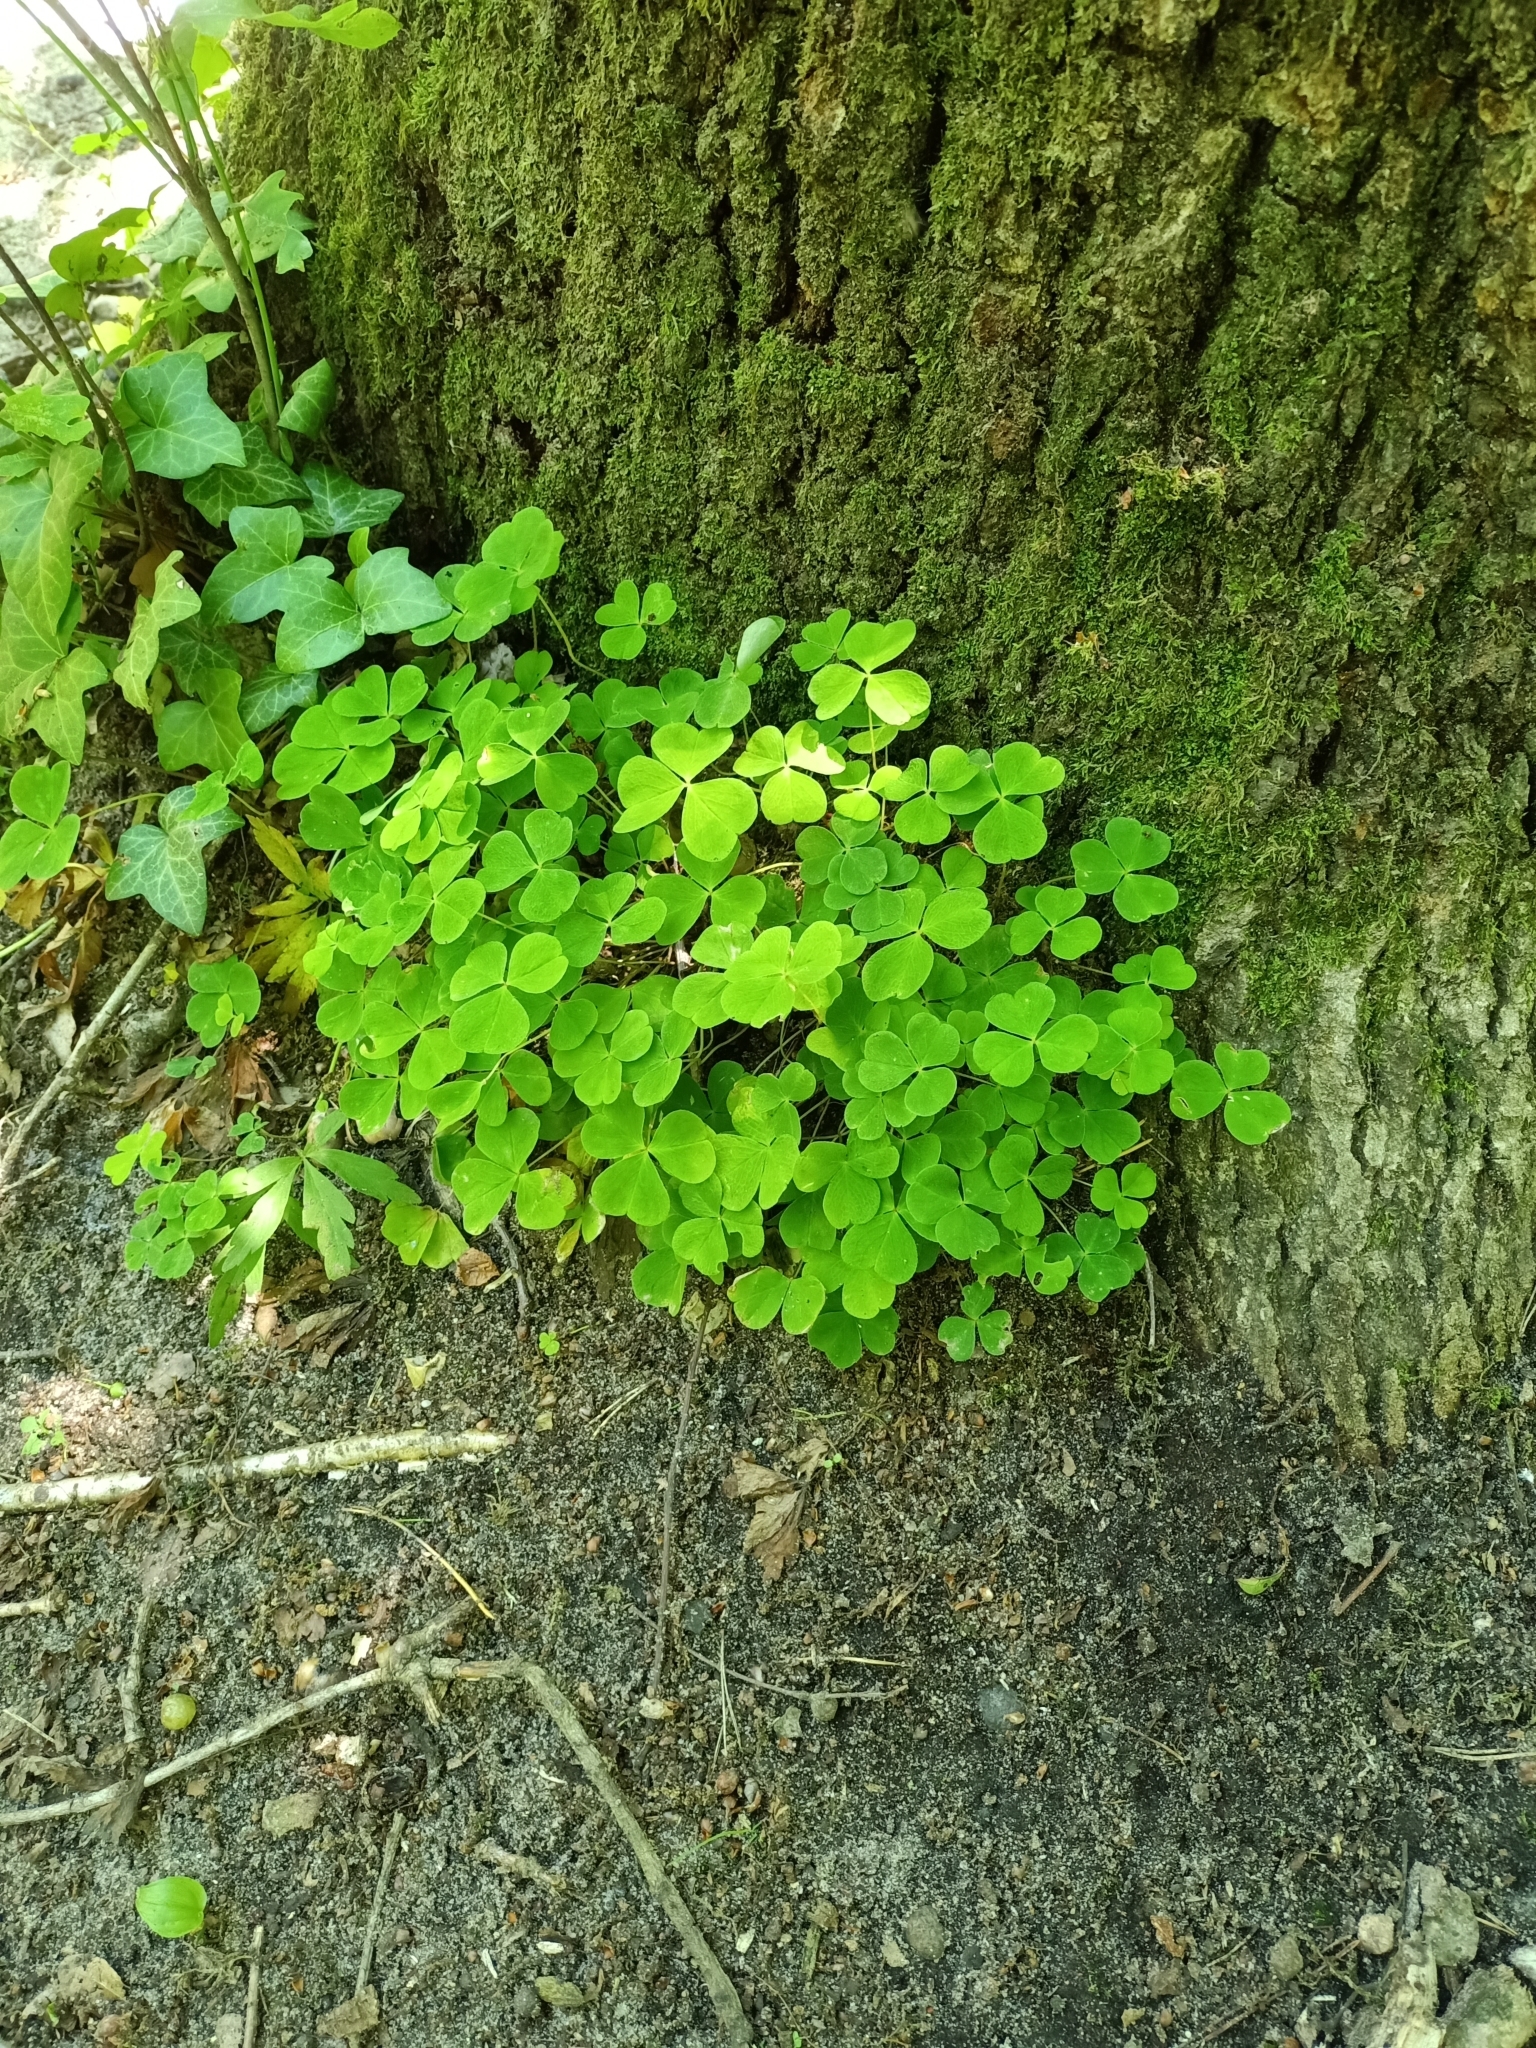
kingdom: Plantae
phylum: Tracheophyta
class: Magnoliopsida
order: Oxalidales
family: Oxalidaceae
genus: Oxalis
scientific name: Oxalis acetosella
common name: Wood-sorrel
